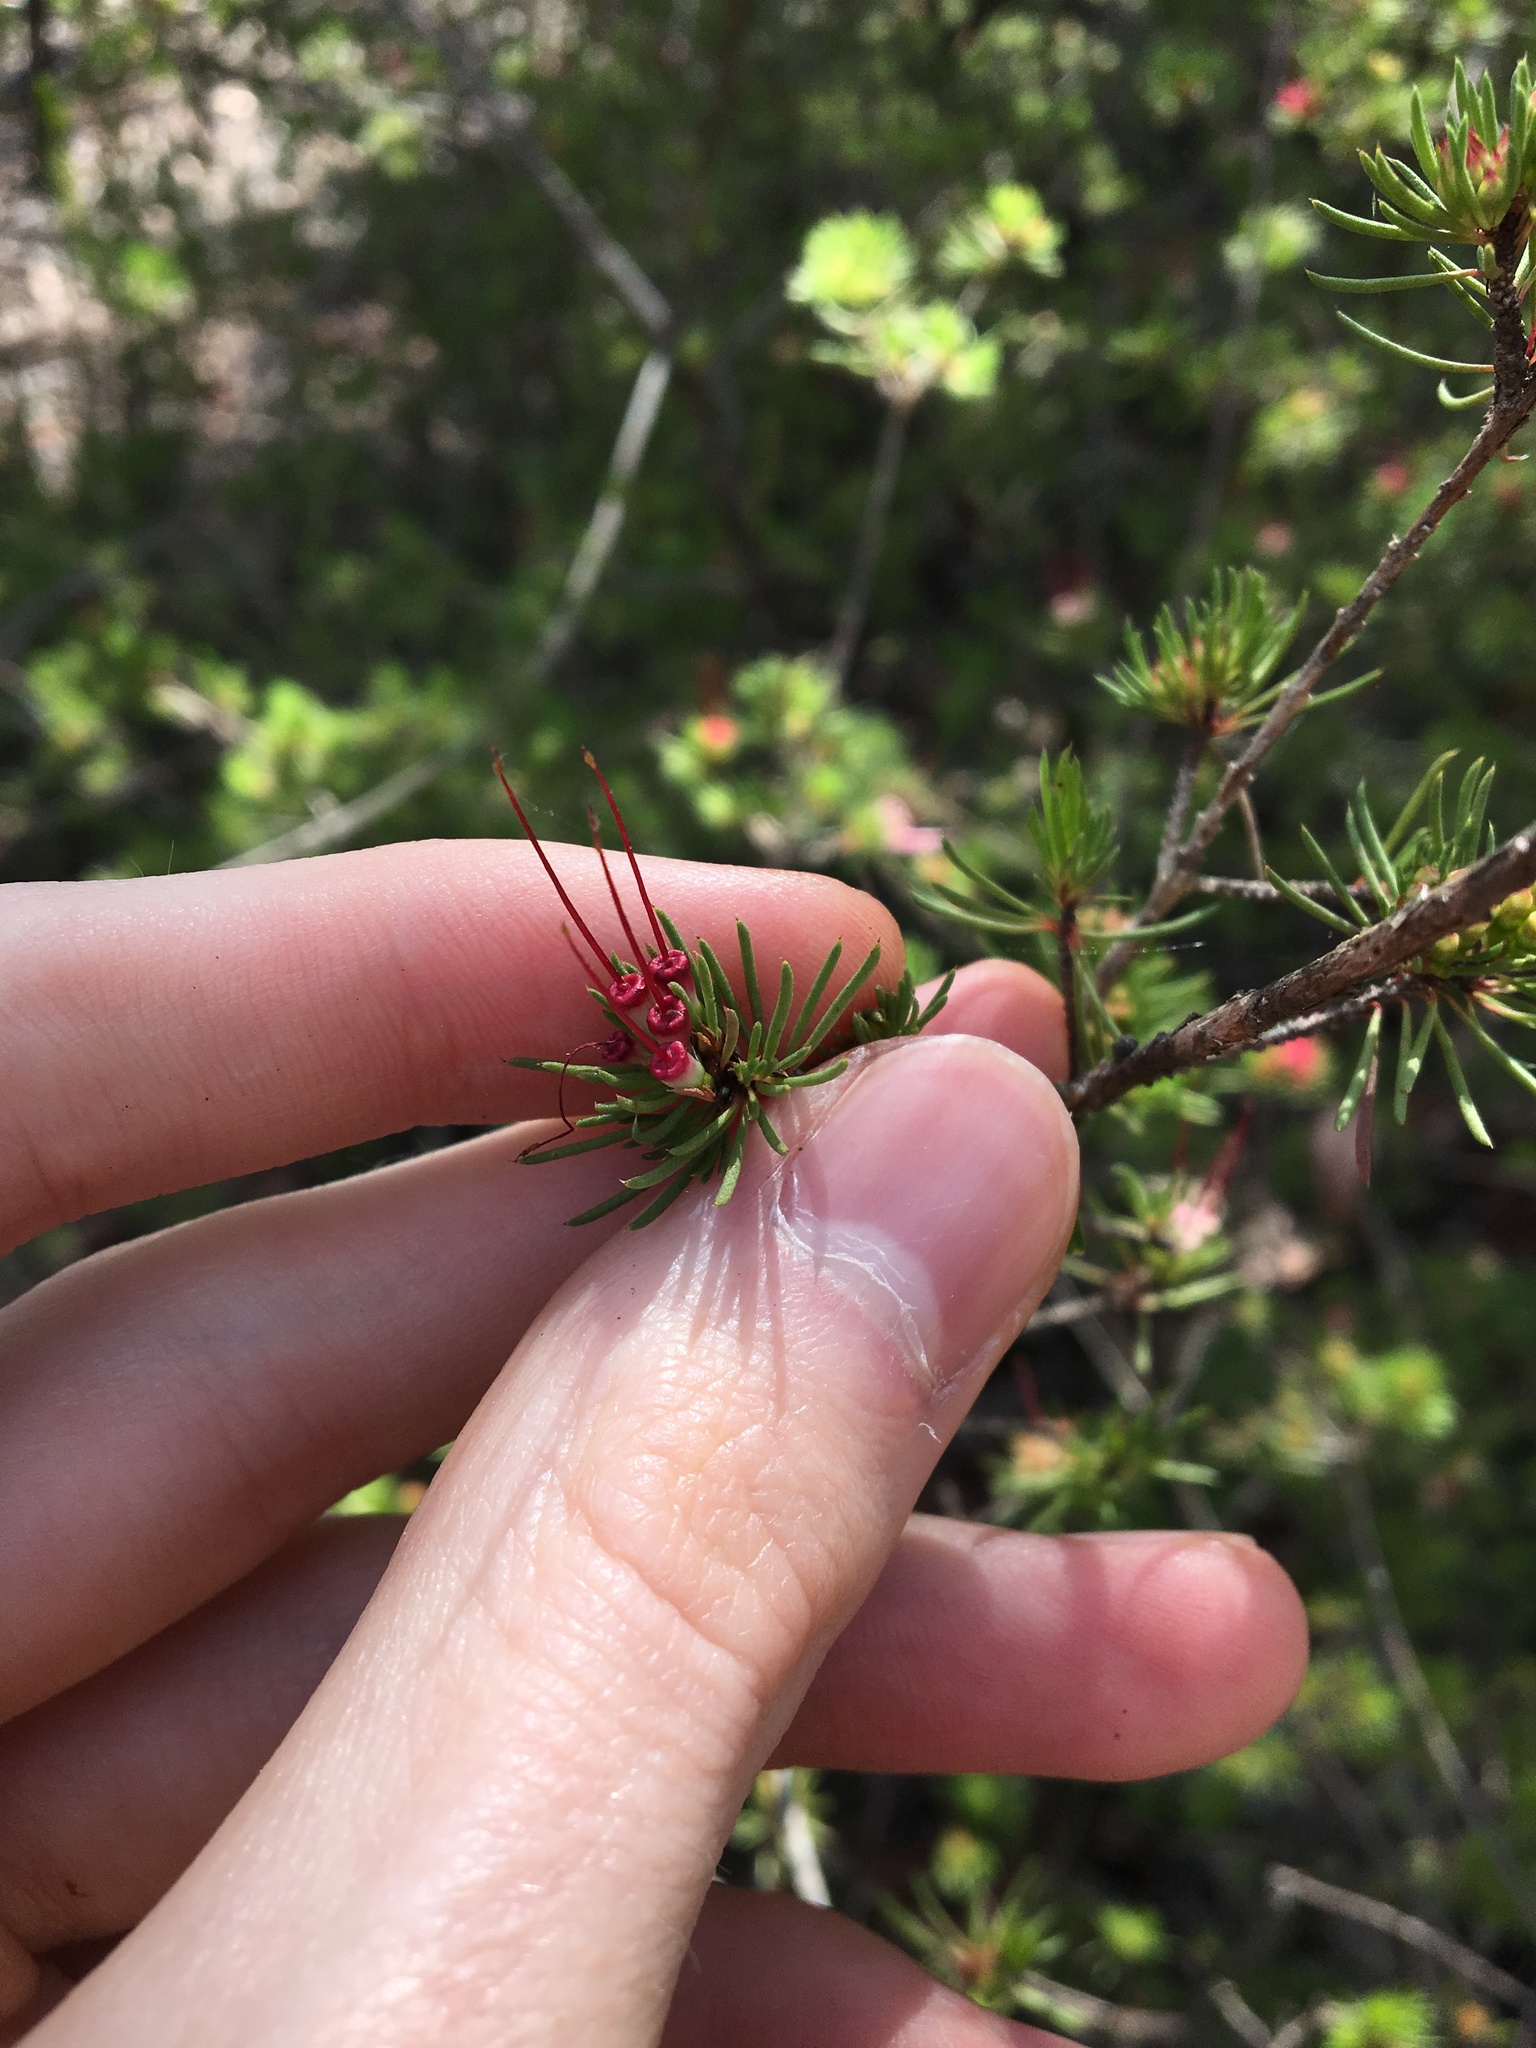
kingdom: Plantae
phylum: Tracheophyta
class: Magnoliopsida
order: Myrtales
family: Myrtaceae
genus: Darwinia
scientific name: Darwinia fascicularis
